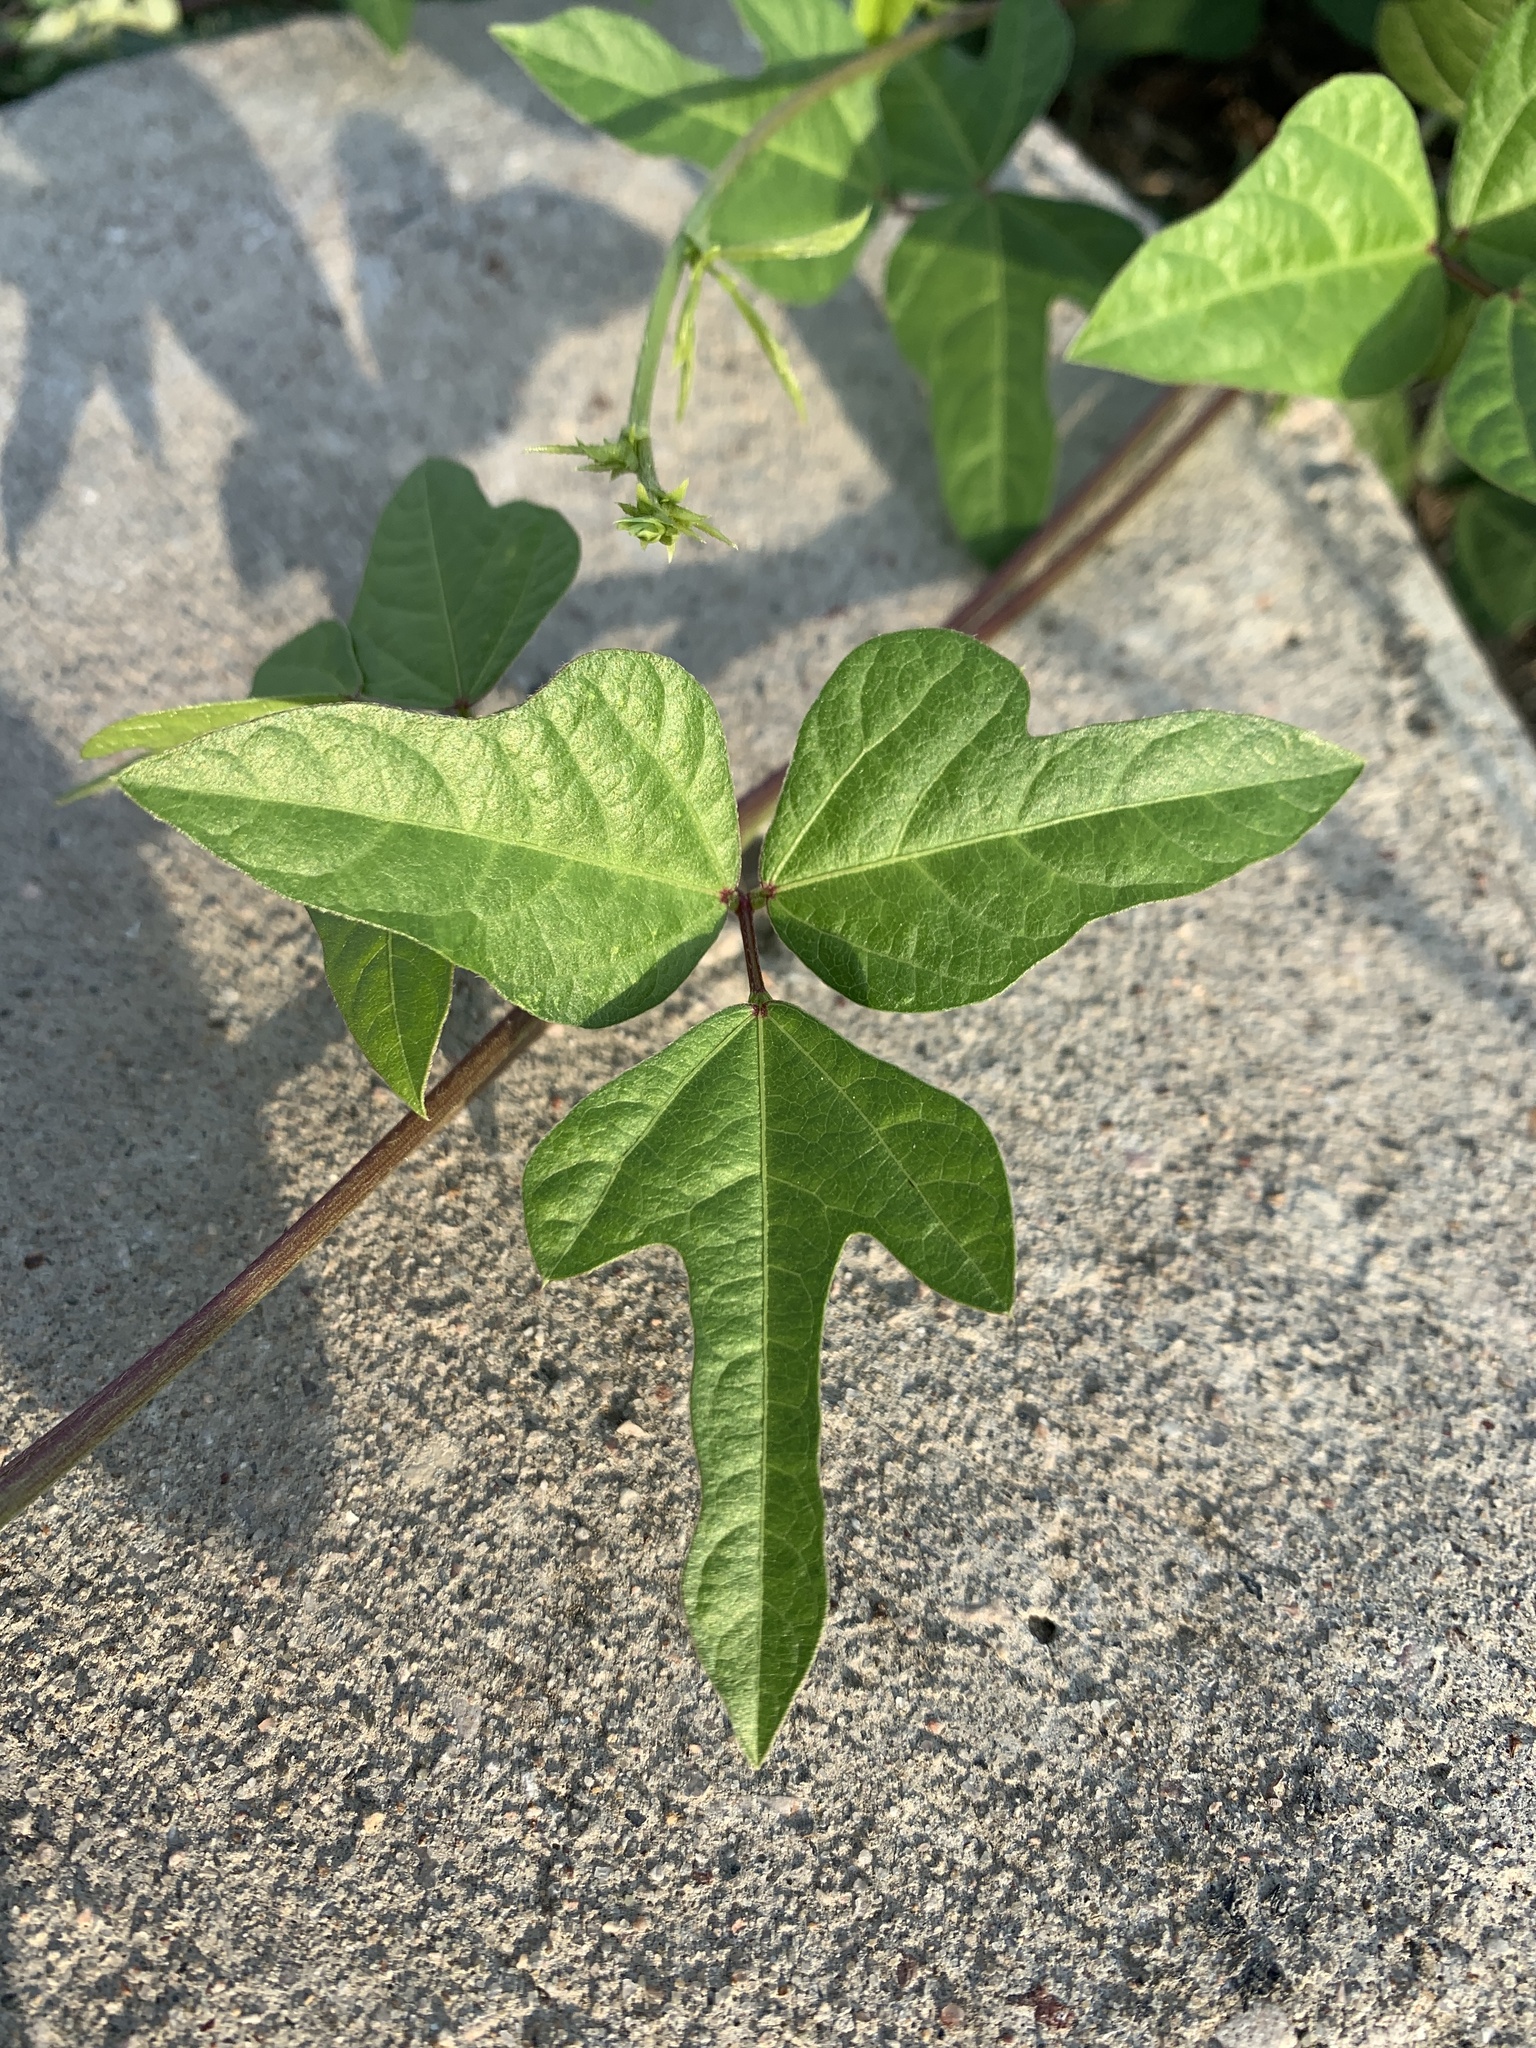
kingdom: Plantae
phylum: Tracheophyta
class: Magnoliopsida
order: Fabales
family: Fabaceae
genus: Strophostyles
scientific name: Strophostyles helvola
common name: Trailing wild bean
